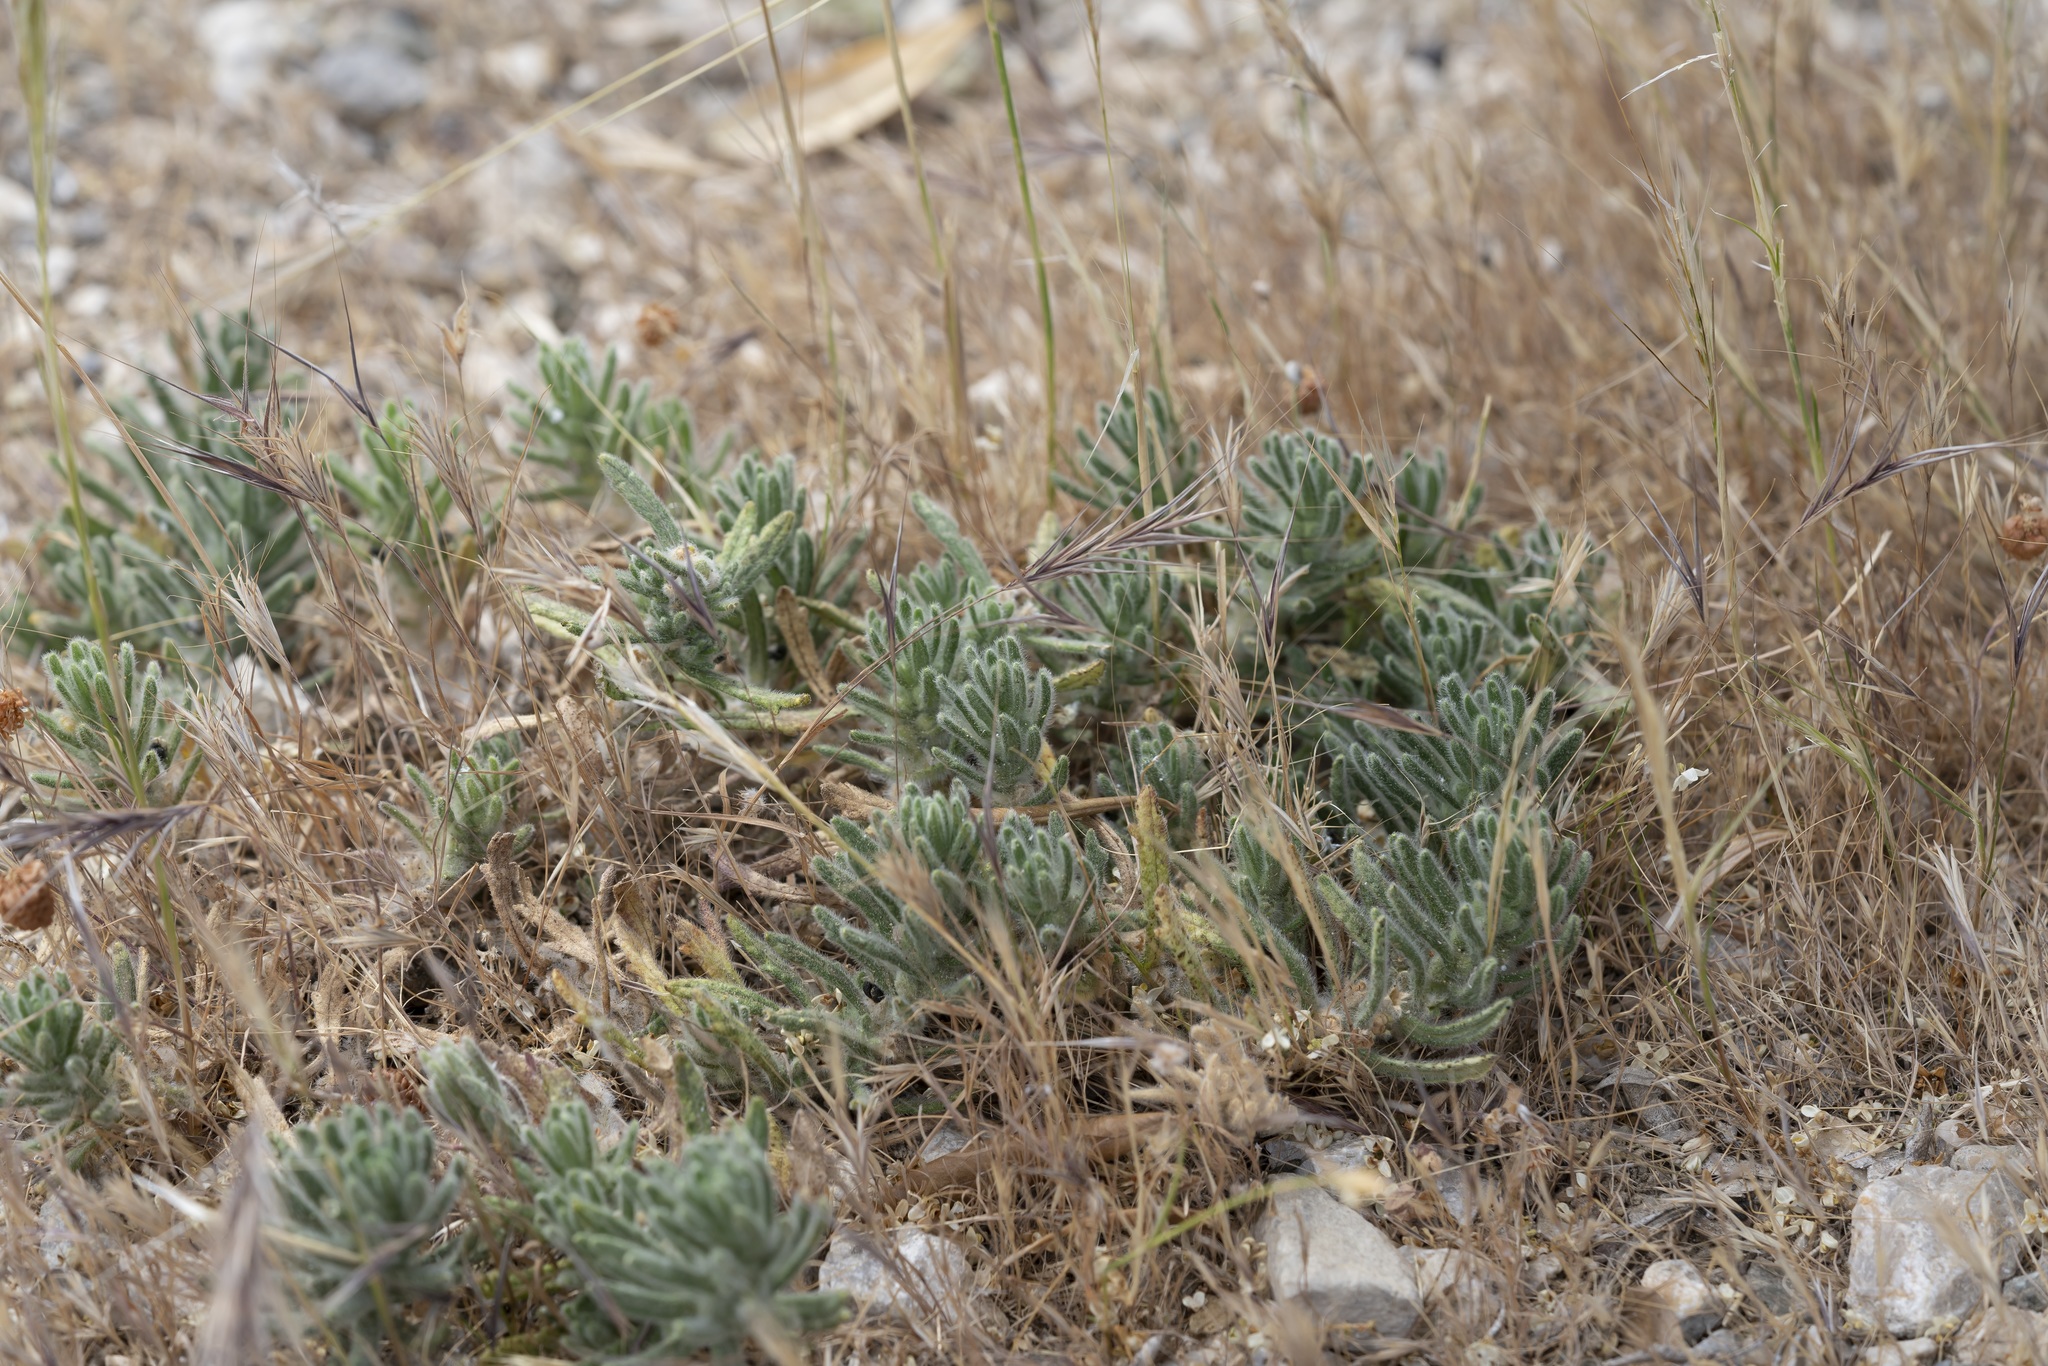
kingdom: Plantae
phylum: Tracheophyta
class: Magnoliopsida
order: Lamiales
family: Lamiaceae
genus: Ajuga
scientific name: Ajuga iva
